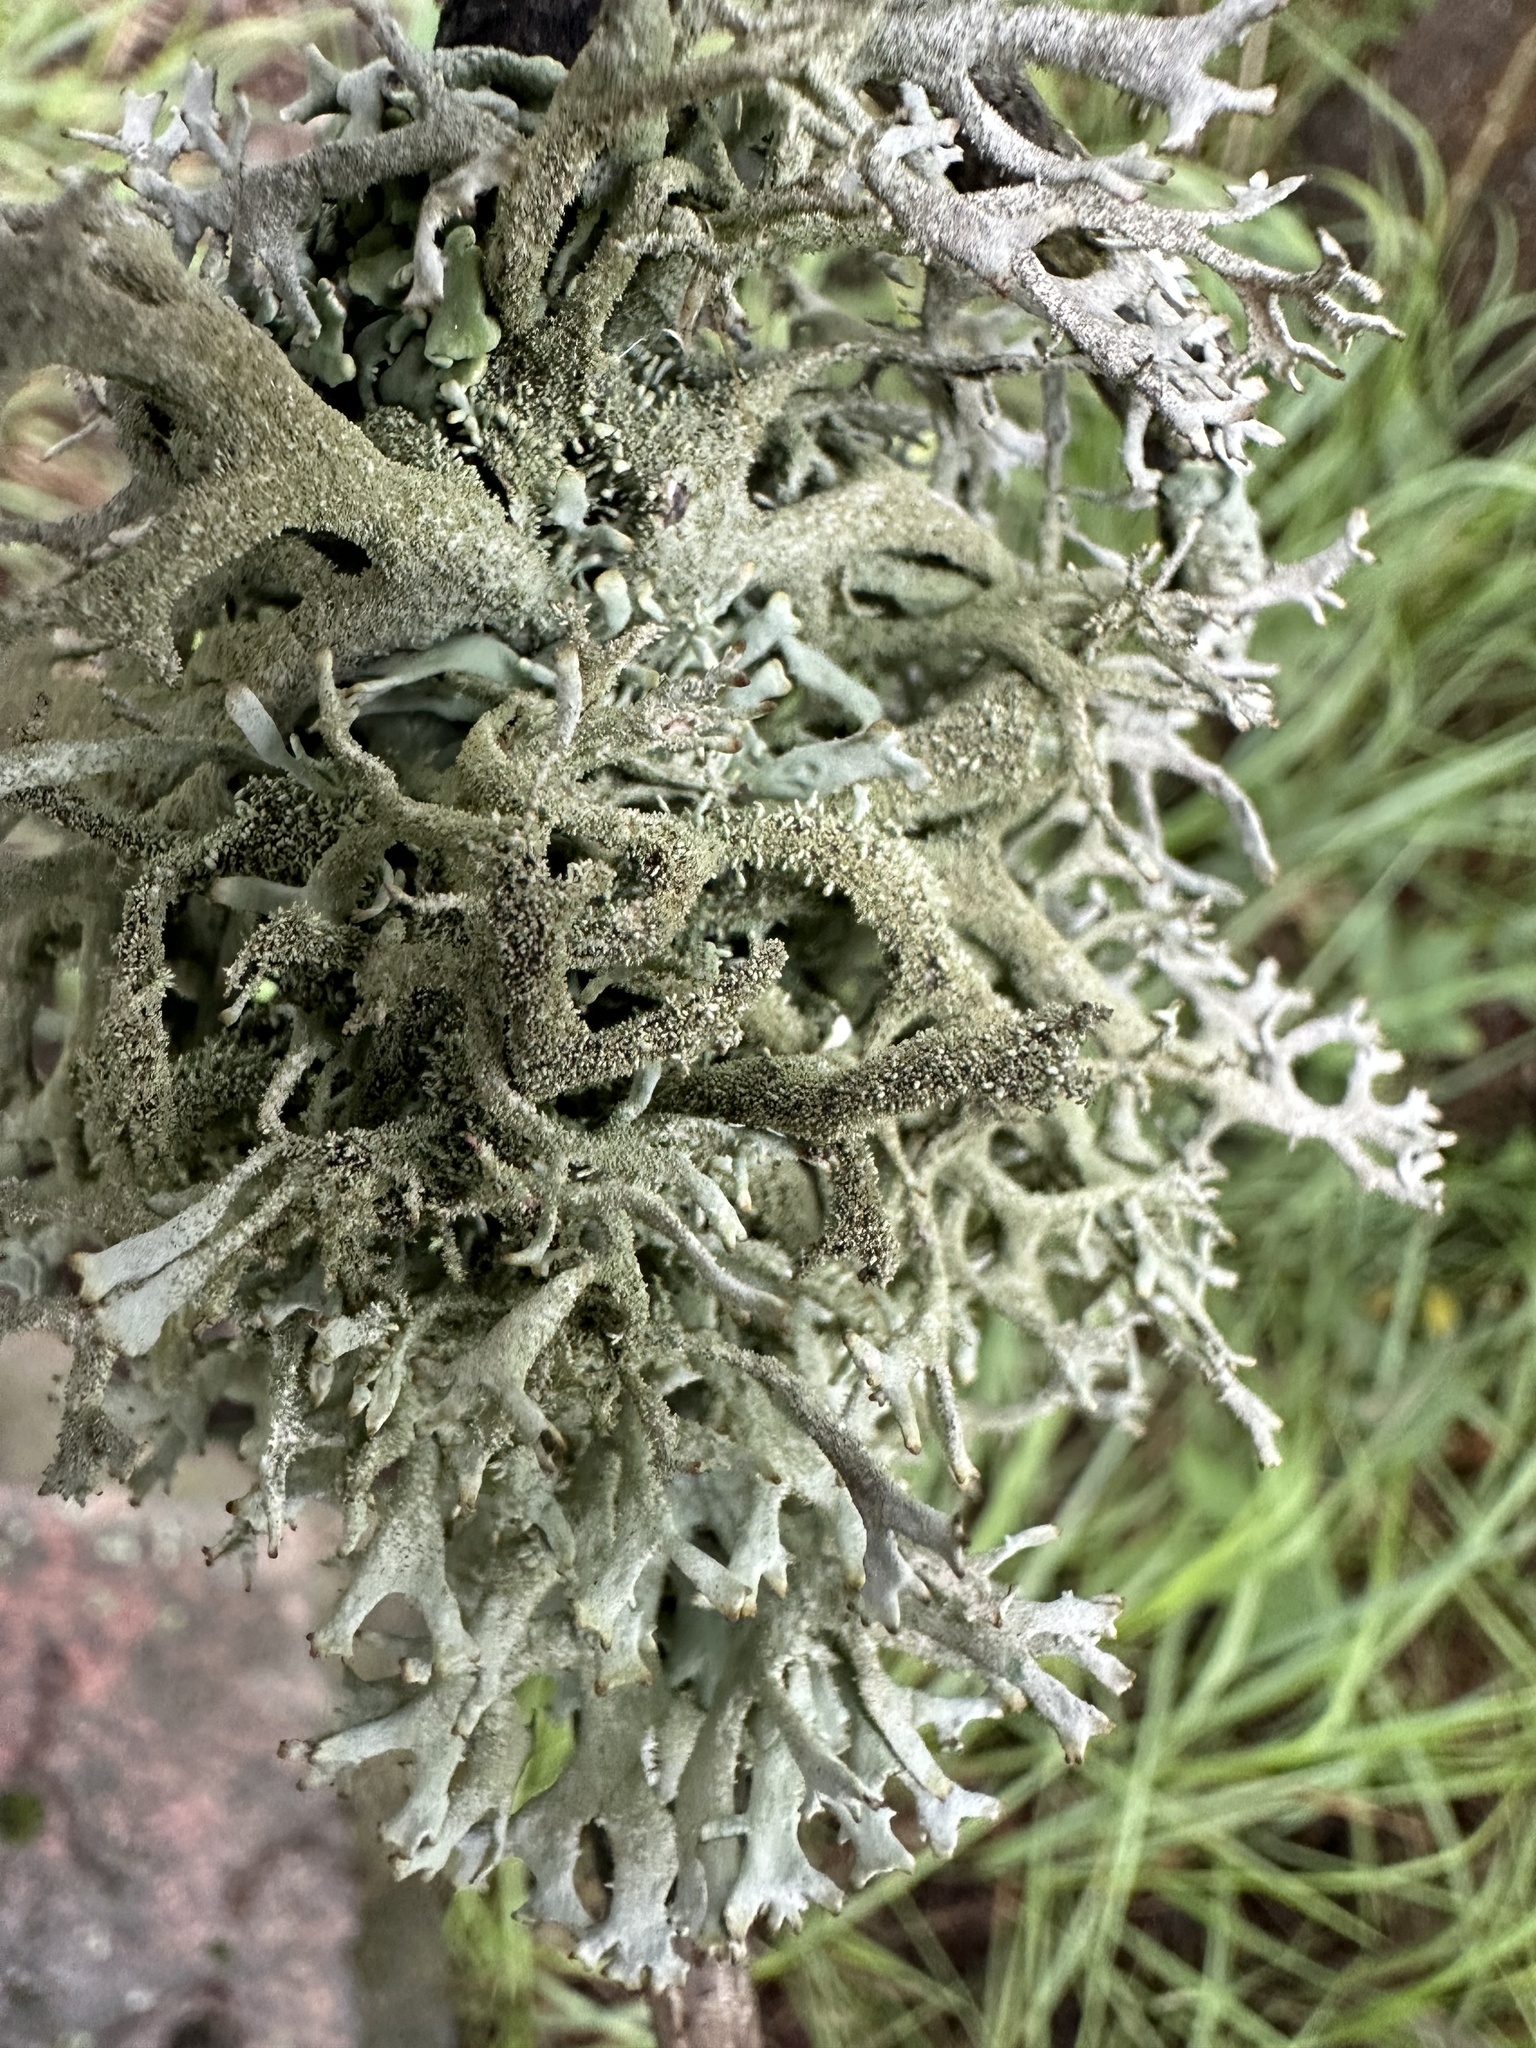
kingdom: Fungi
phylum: Ascomycota
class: Lecanoromycetes
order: Lecanorales
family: Parmeliaceae
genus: Pseudevernia
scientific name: Pseudevernia furfuracea
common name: Tree moss
